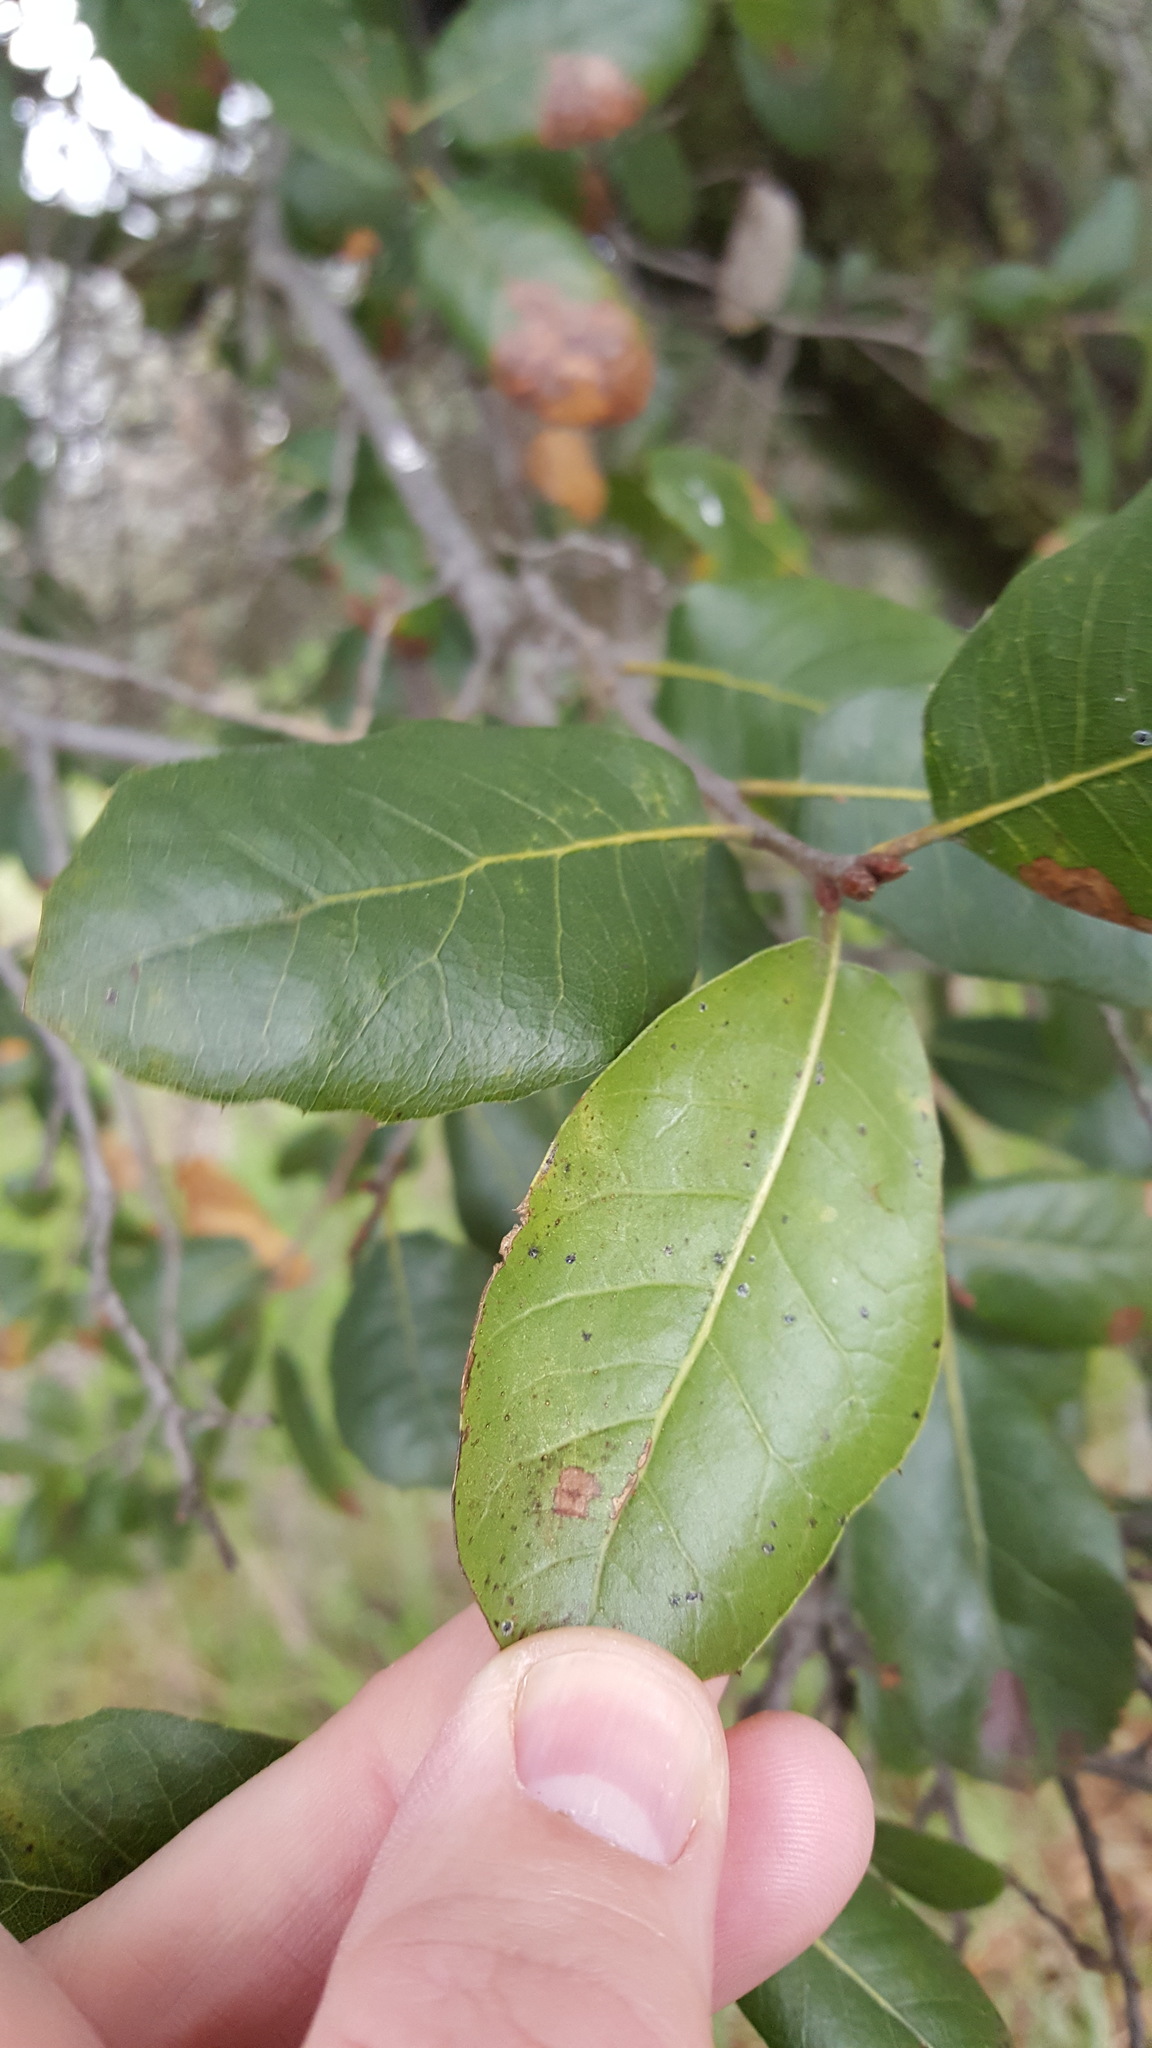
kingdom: Plantae
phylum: Tracheophyta
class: Magnoliopsida
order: Fagales
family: Fagaceae
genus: Quercus
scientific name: Quercus wislizeni
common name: Interior live oak
